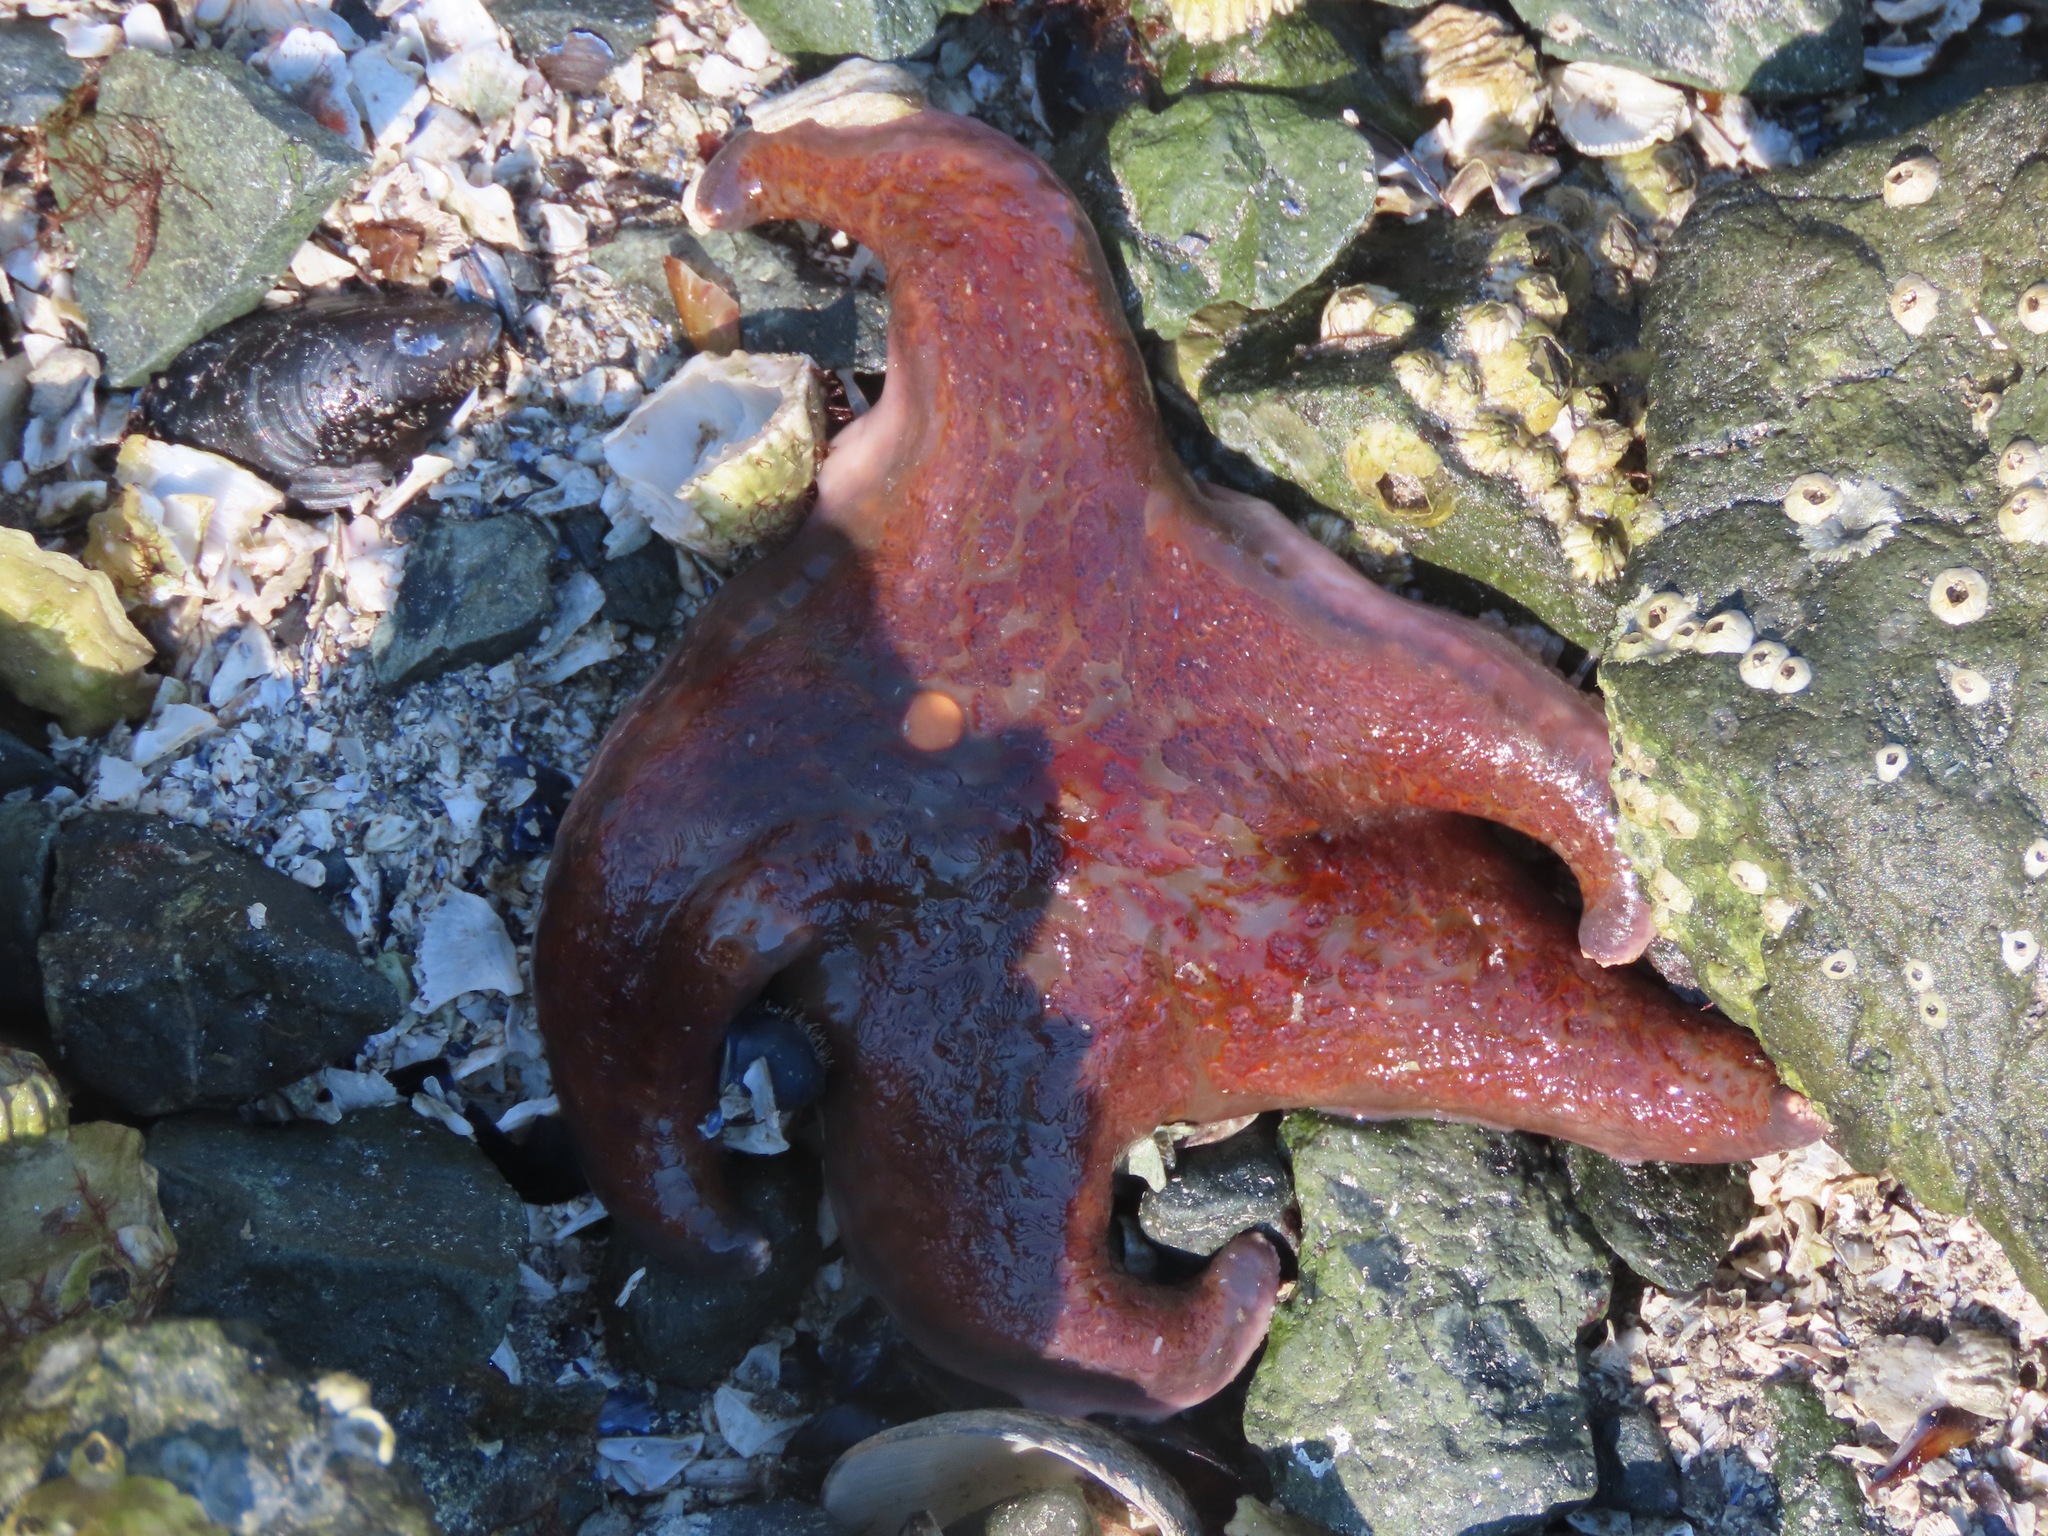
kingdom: Animalia
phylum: Echinodermata
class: Asteroidea
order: Valvatida
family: Asteropseidae
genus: Dermasterias
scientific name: Dermasterias imbricata
